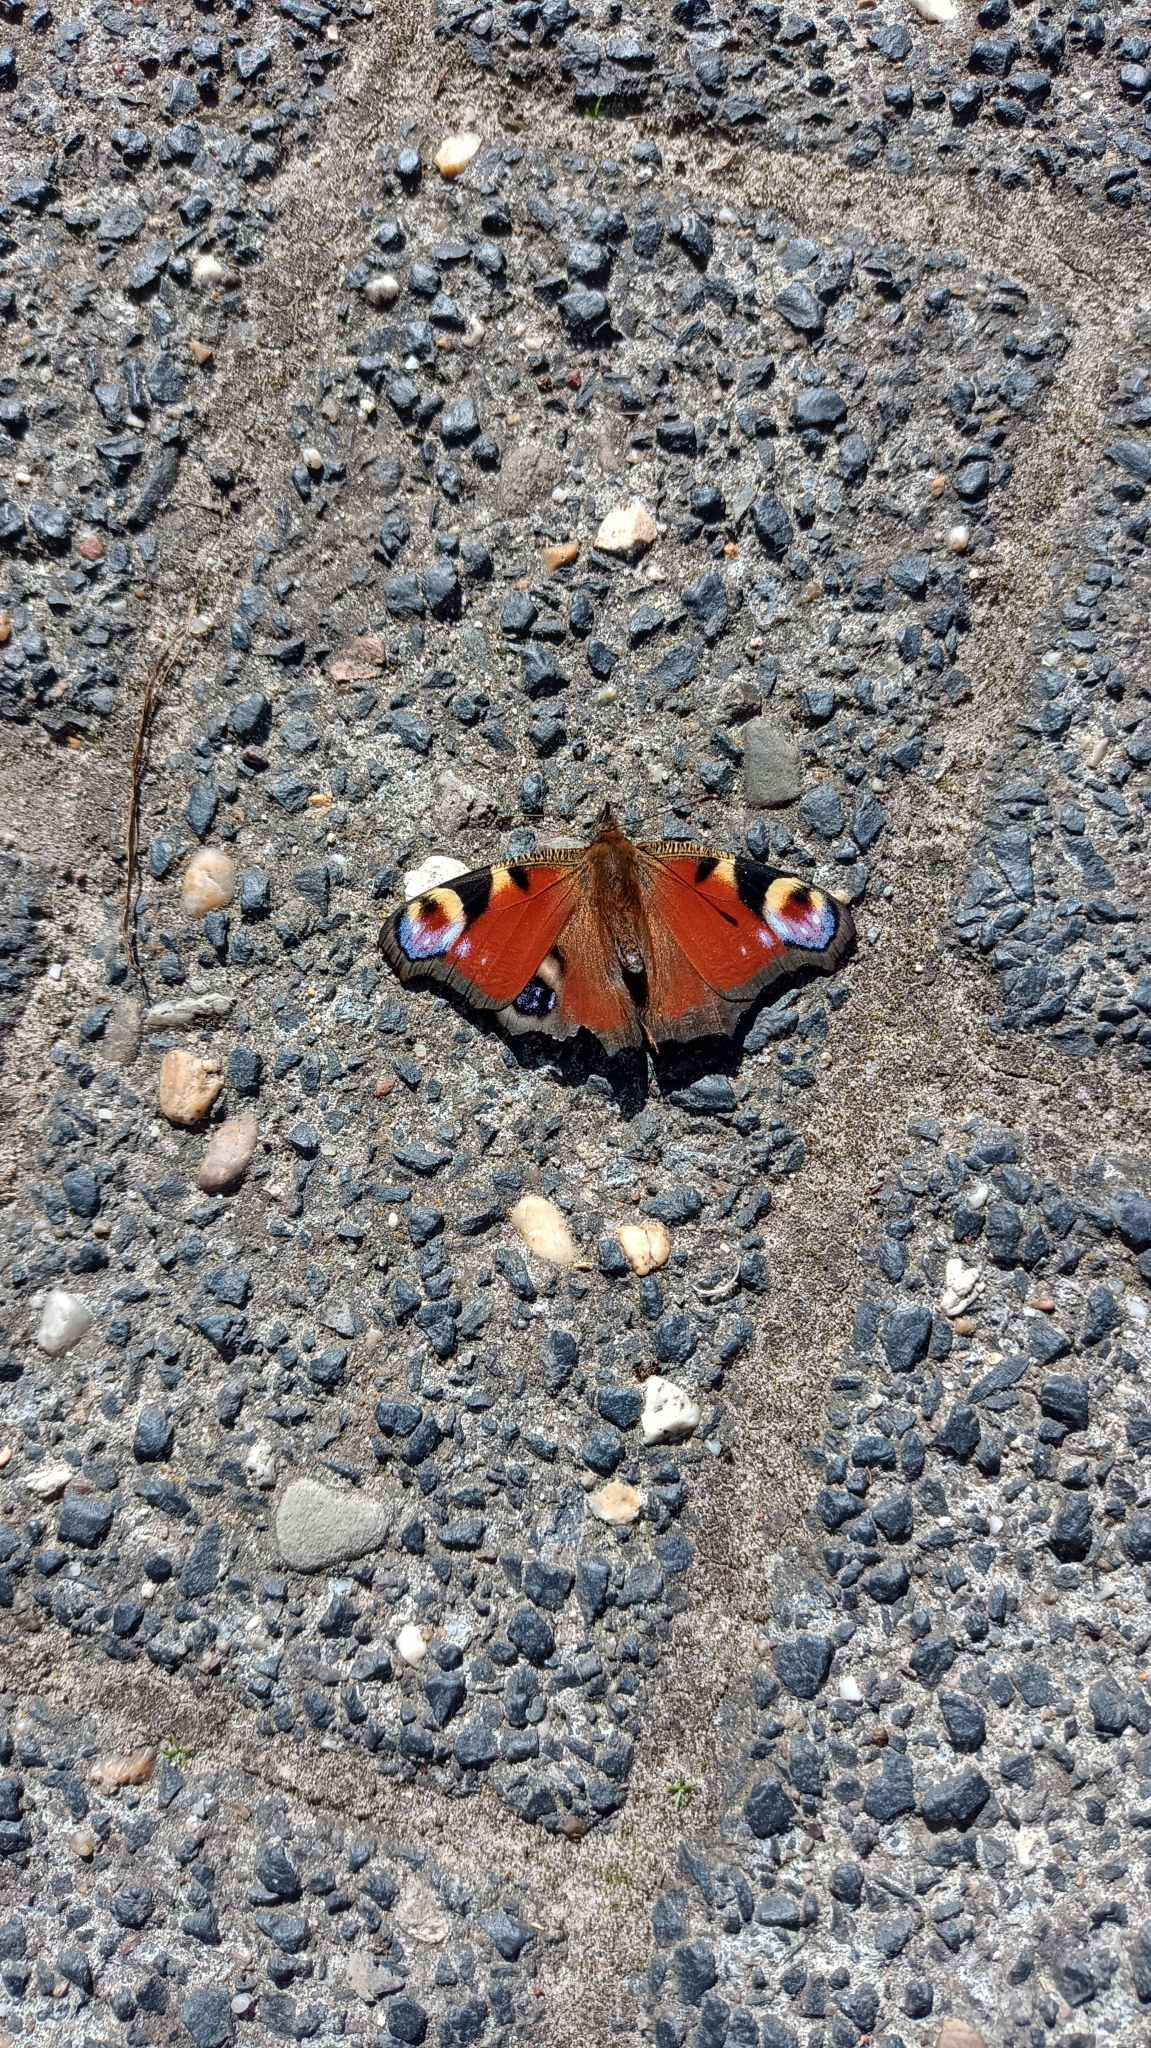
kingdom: Animalia
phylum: Arthropoda
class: Insecta
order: Lepidoptera
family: Nymphalidae
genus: Aglais
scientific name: Aglais io
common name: Peacock
